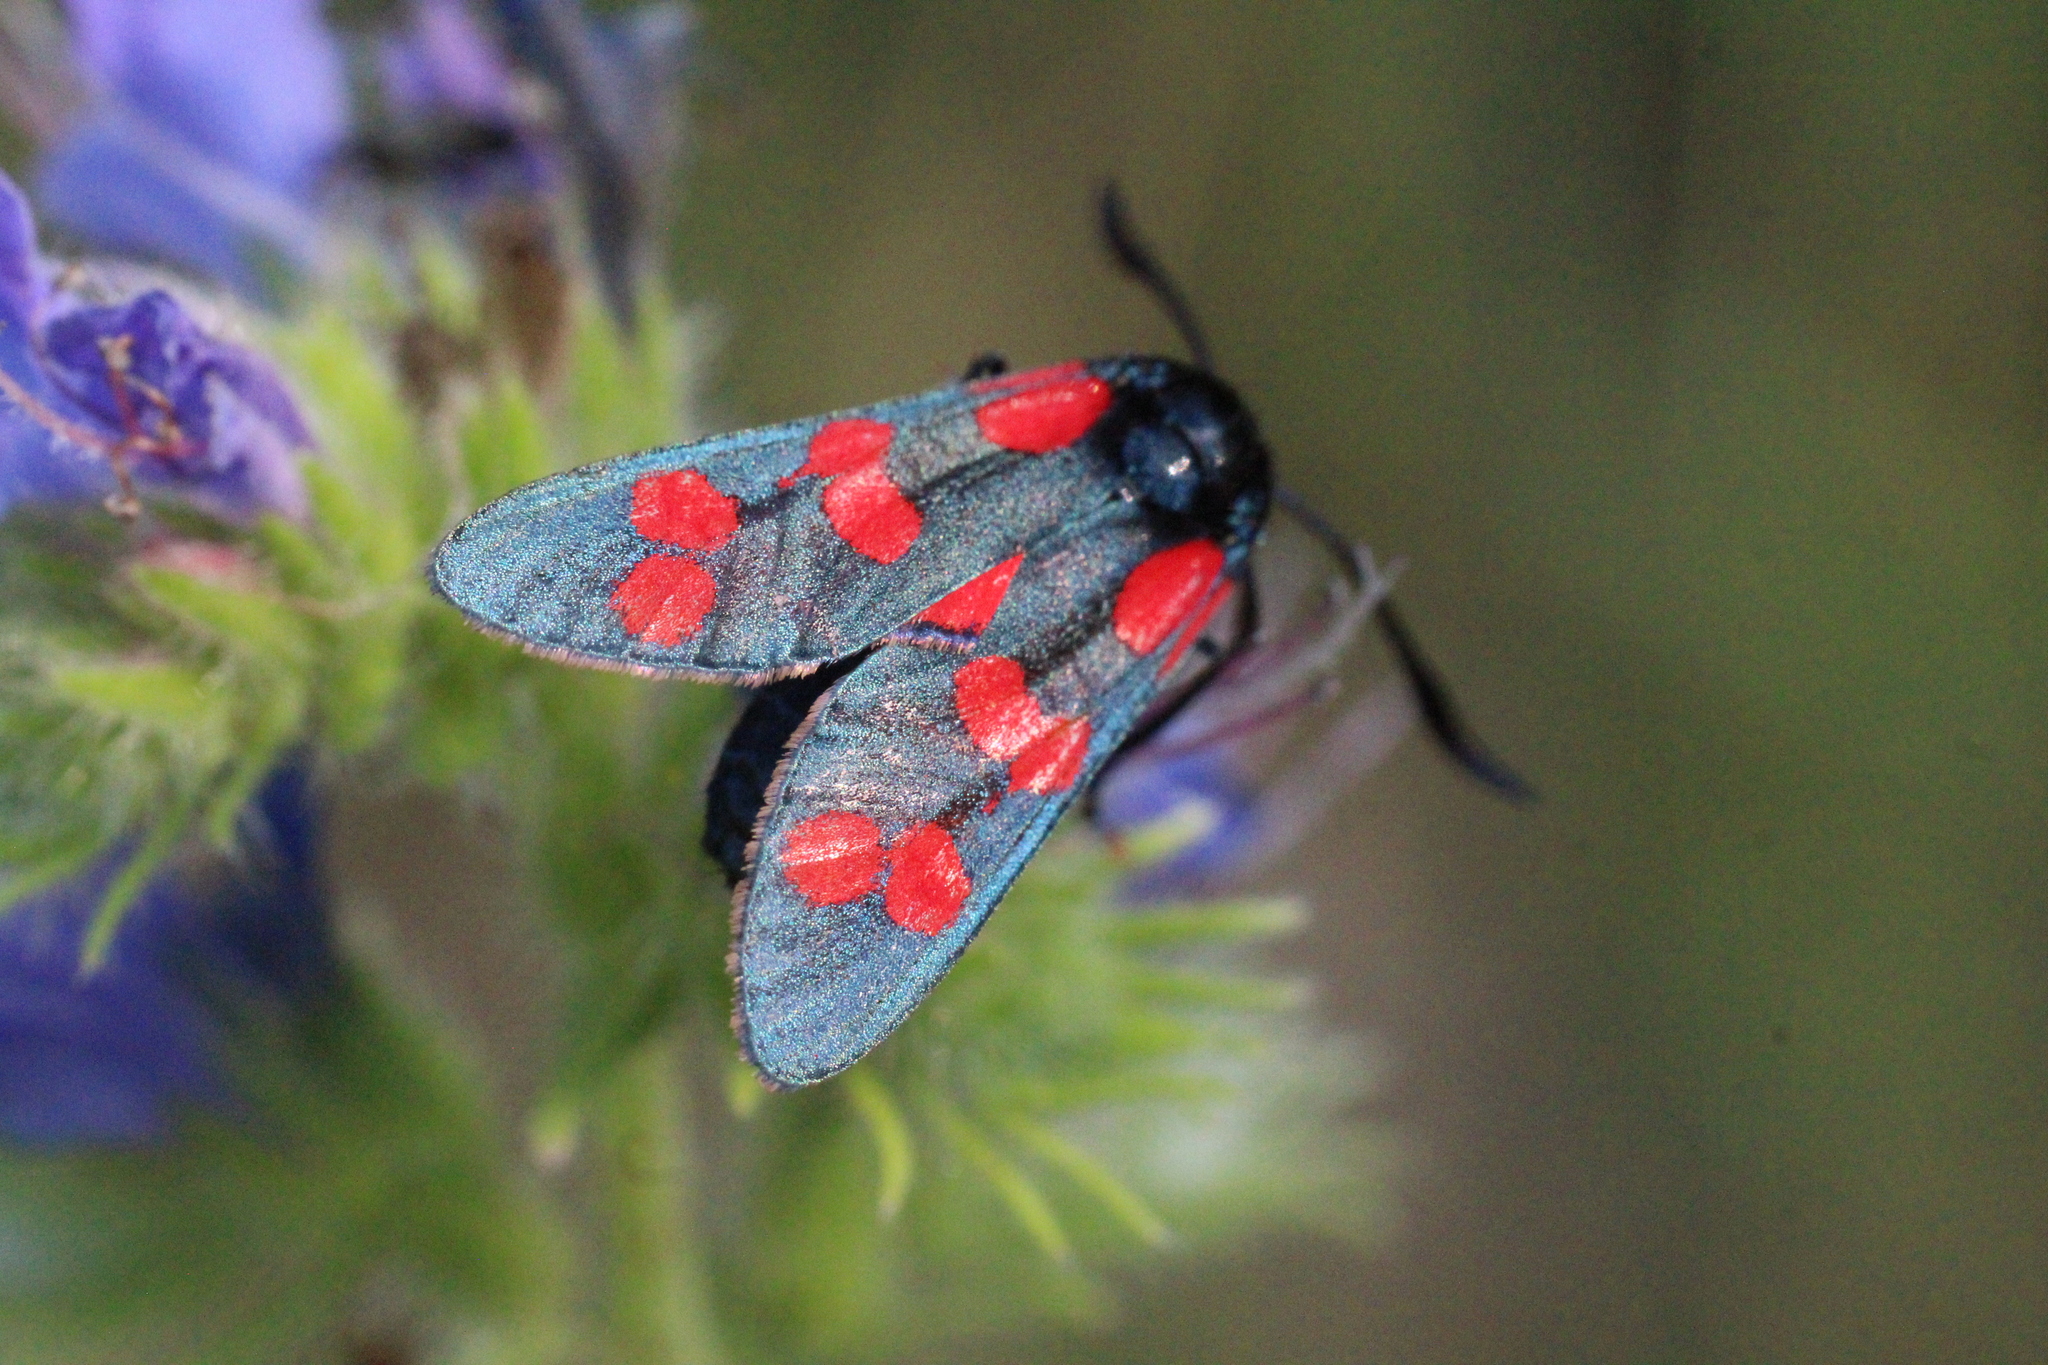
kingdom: Animalia
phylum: Arthropoda
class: Insecta
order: Lepidoptera
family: Zygaenidae
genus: Zygaena
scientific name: Zygaena filipendulae
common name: Six-spot burnet
